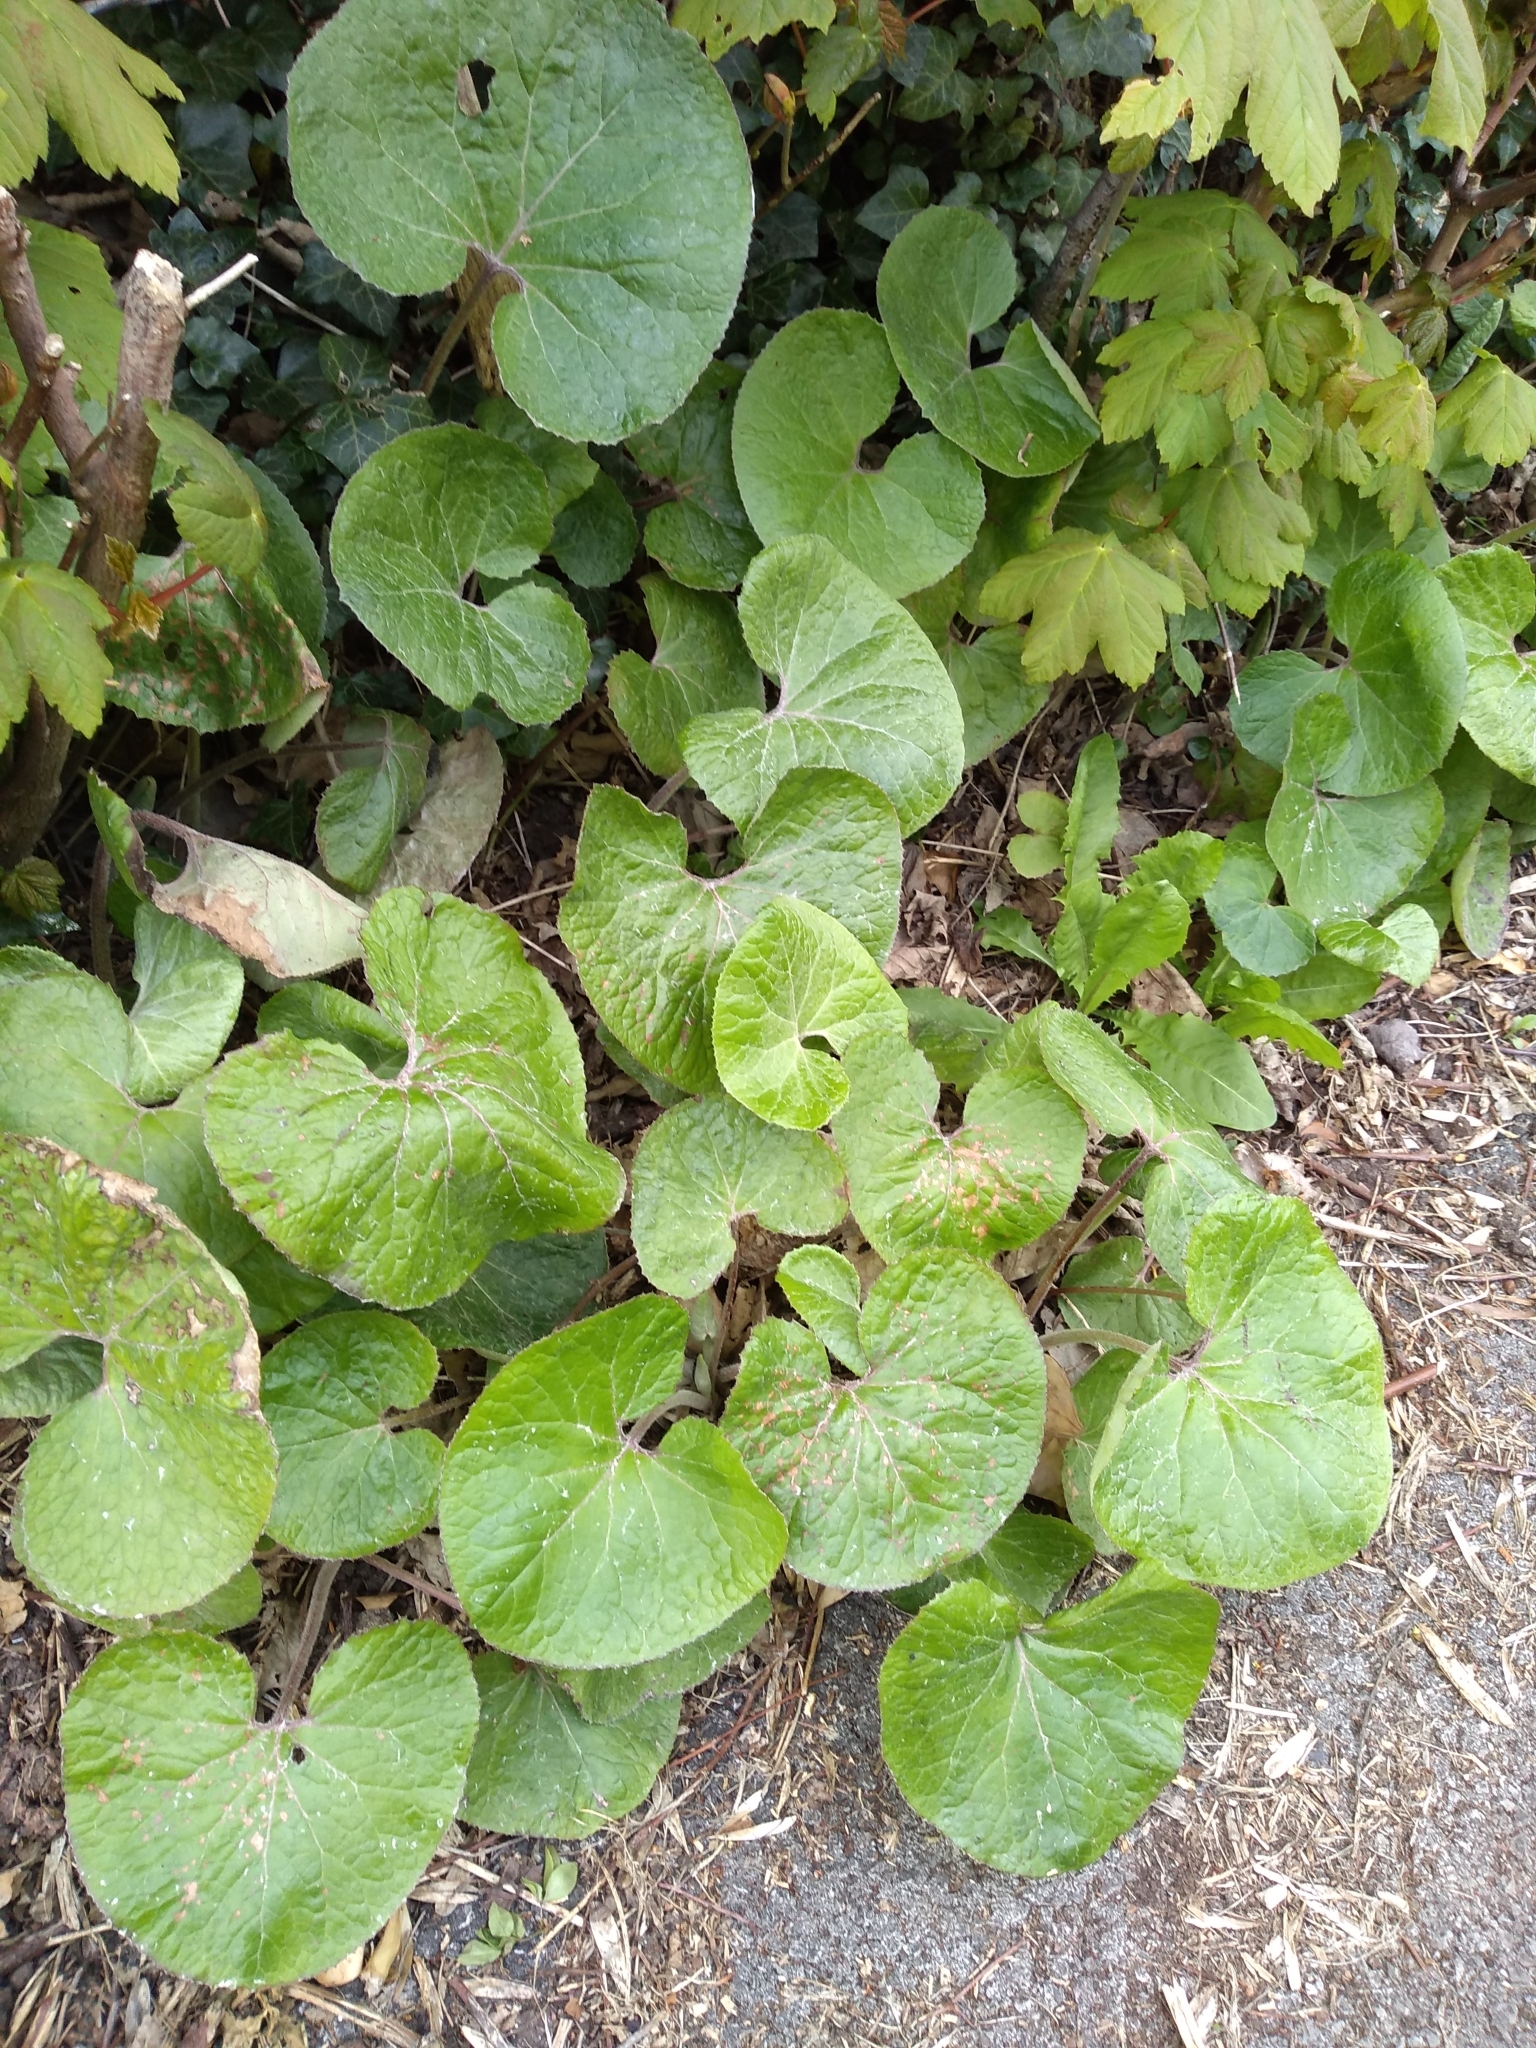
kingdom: Plantae
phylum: Tracheophyta
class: Magnoliopsida
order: Asterales
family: Asteraceae
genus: Petasites
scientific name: Petasites pyrenaicus
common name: Winter heliotrope
